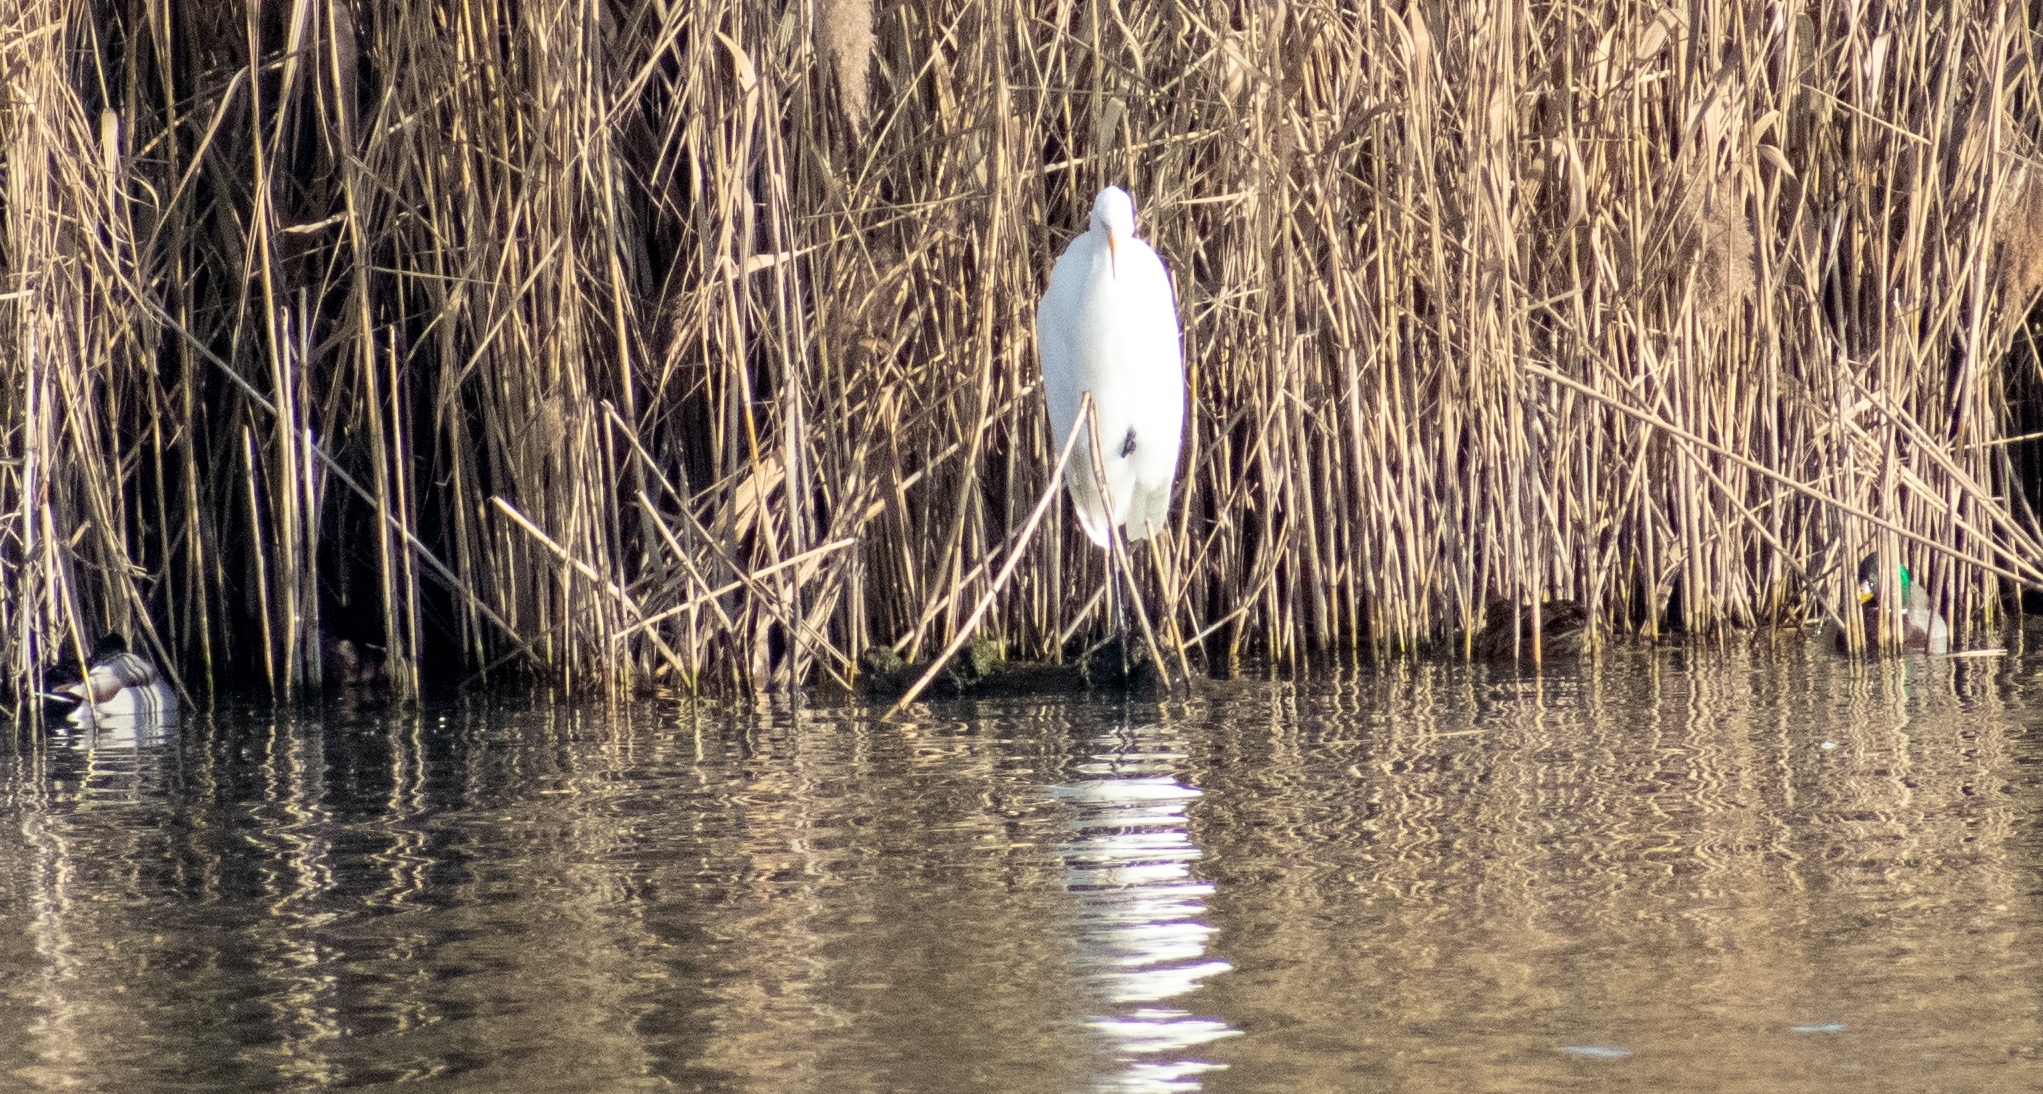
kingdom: Animalia
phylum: Chordata
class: Aves
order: Pelecaniformes
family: Ardeidae
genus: Ardea
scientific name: Ardea alba
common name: Great egret
